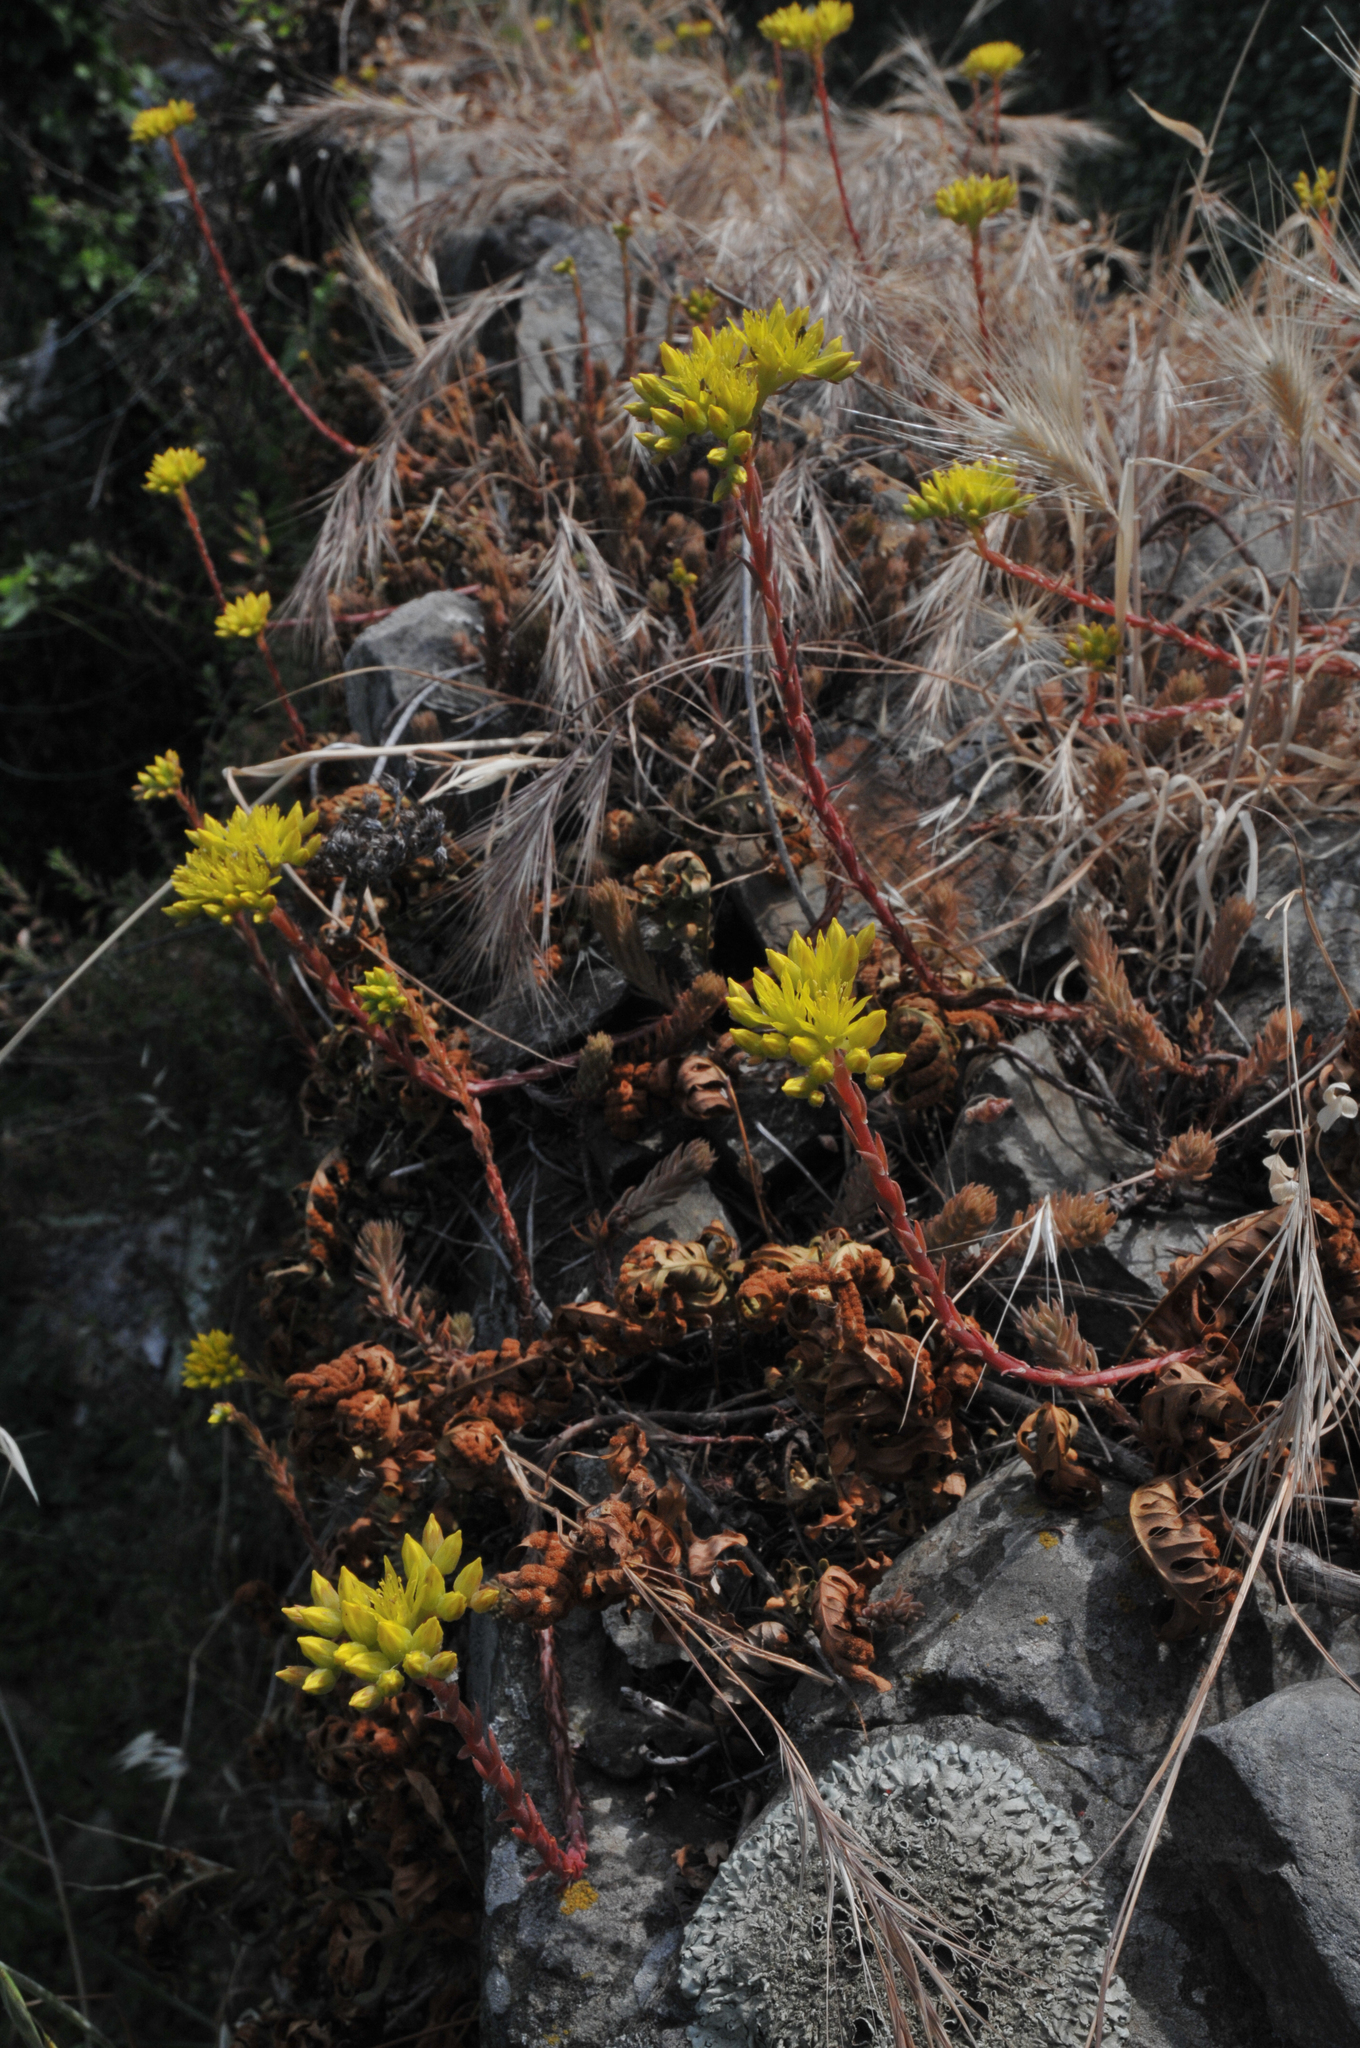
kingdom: Plantae
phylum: Tracheophyta
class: Magnoliopsida
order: Saxifragales
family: Crassulaceae
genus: Petrosedum
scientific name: Petrosedum rupestre
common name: Jenny's stonecrop
